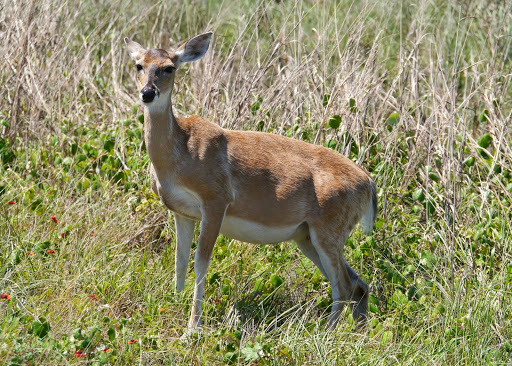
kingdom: Animalia
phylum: Chordata
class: Mammalia
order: Artiodactyla
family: Cervidae
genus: Odocoileus
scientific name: Odocoileus virginianus
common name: White-tailed deer
